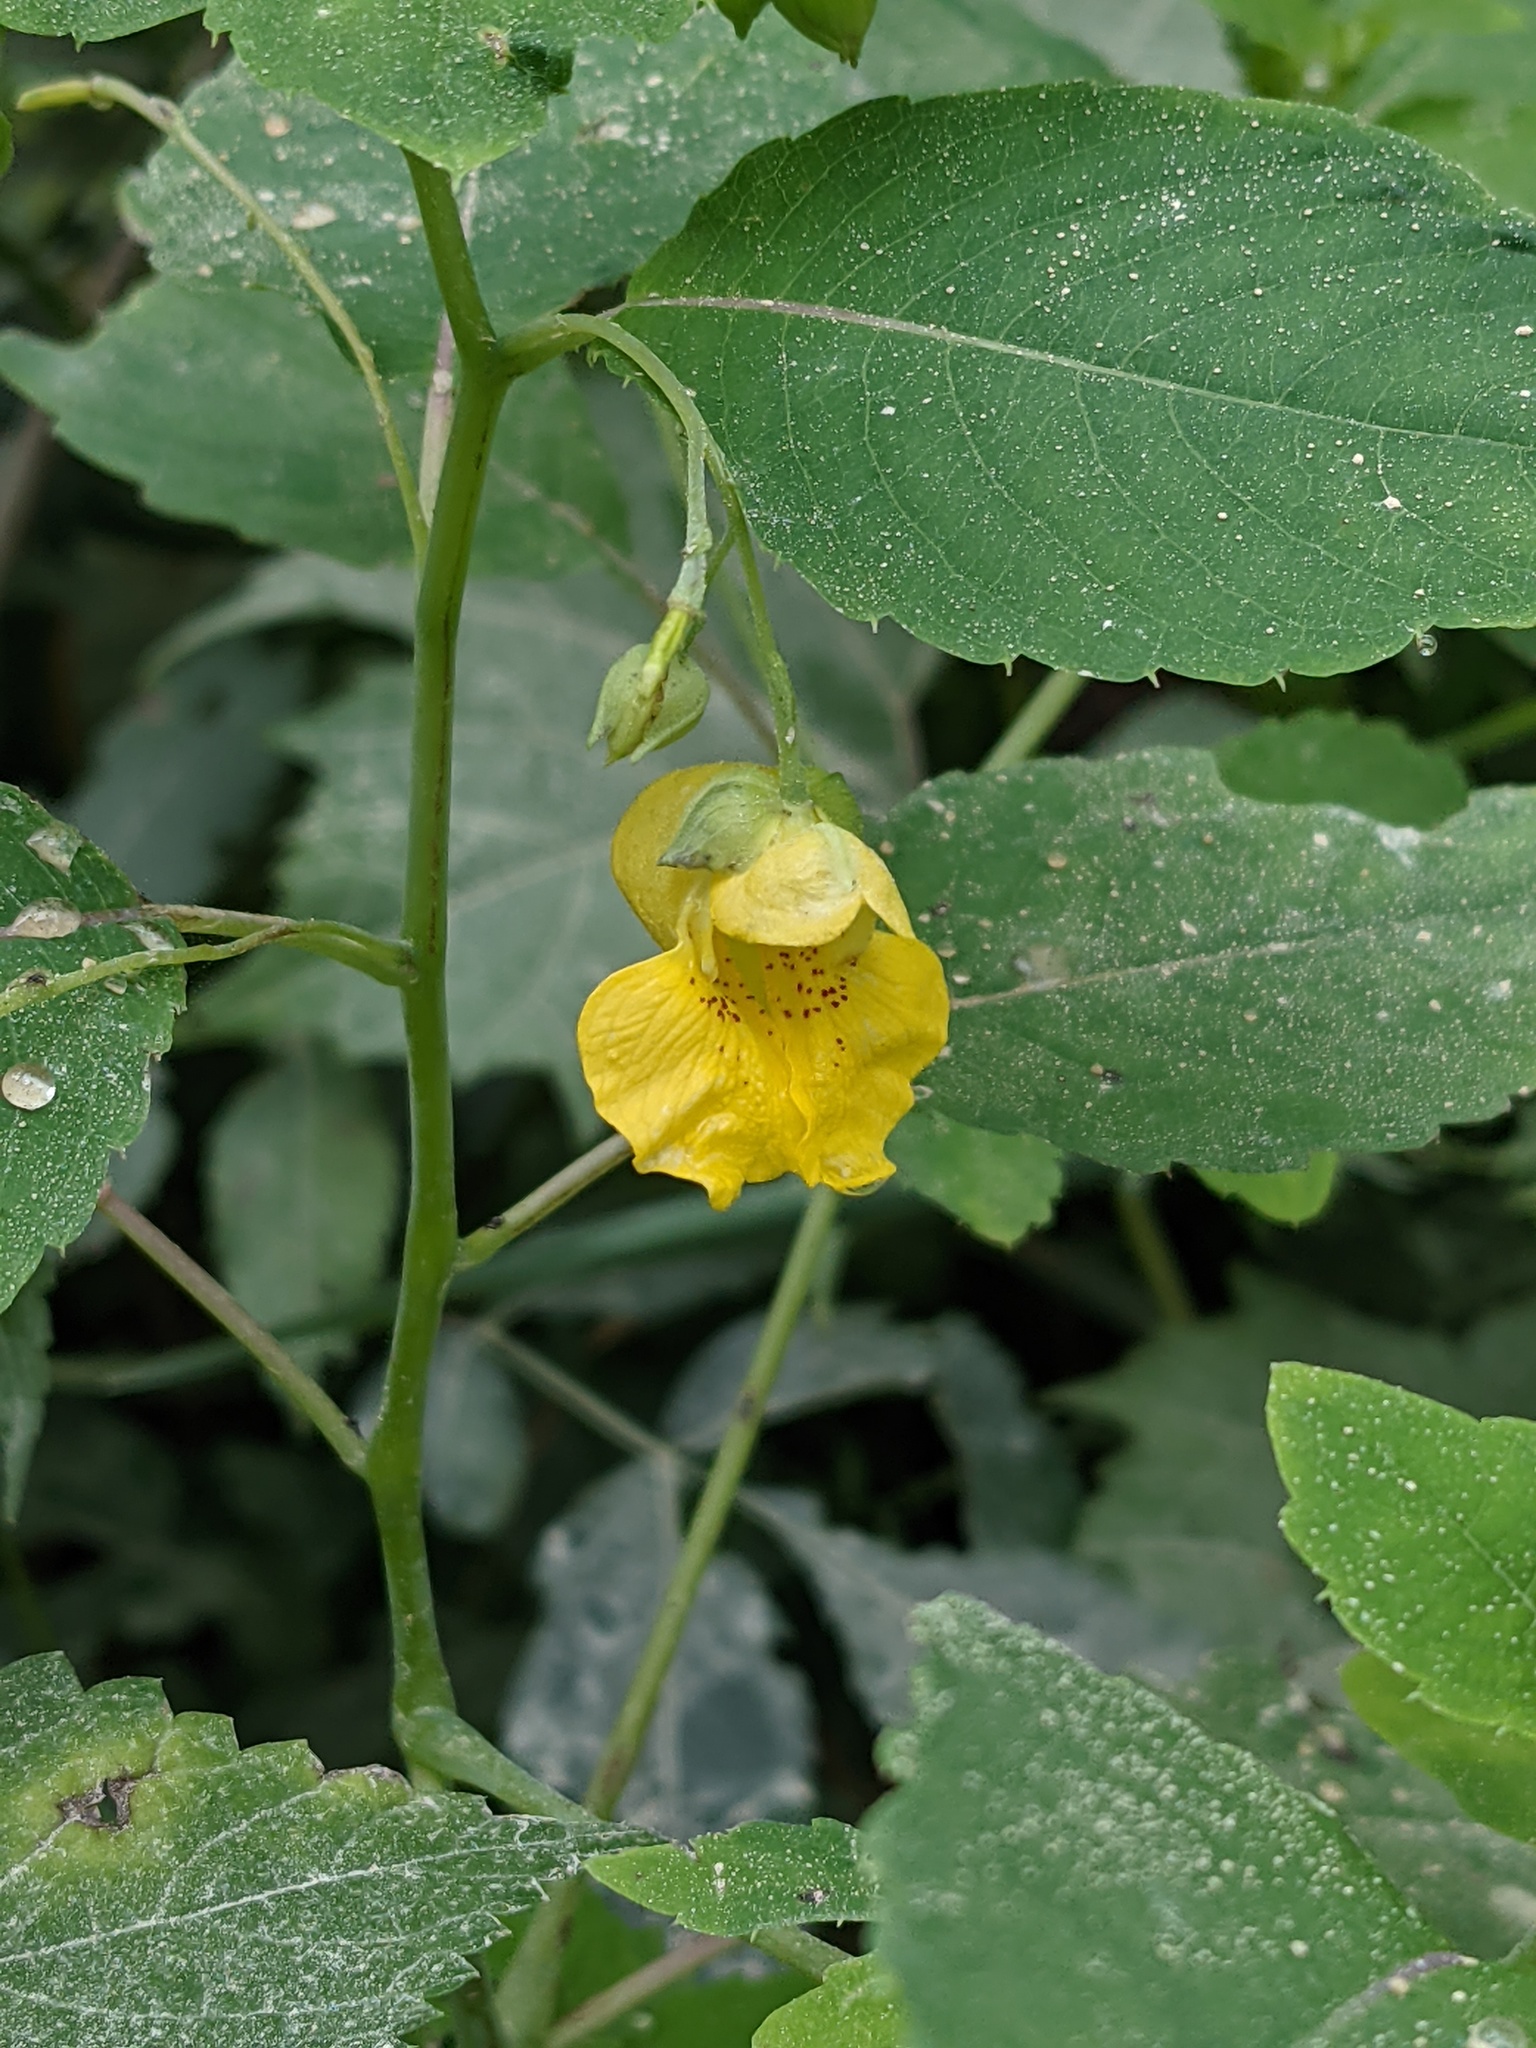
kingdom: Plantae
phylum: Tracheophyta
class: Magnoliopsida
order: Ericales
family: Balsaminaceae
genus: Impatiens
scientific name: Impatiens pallida
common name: Pale snapweed
